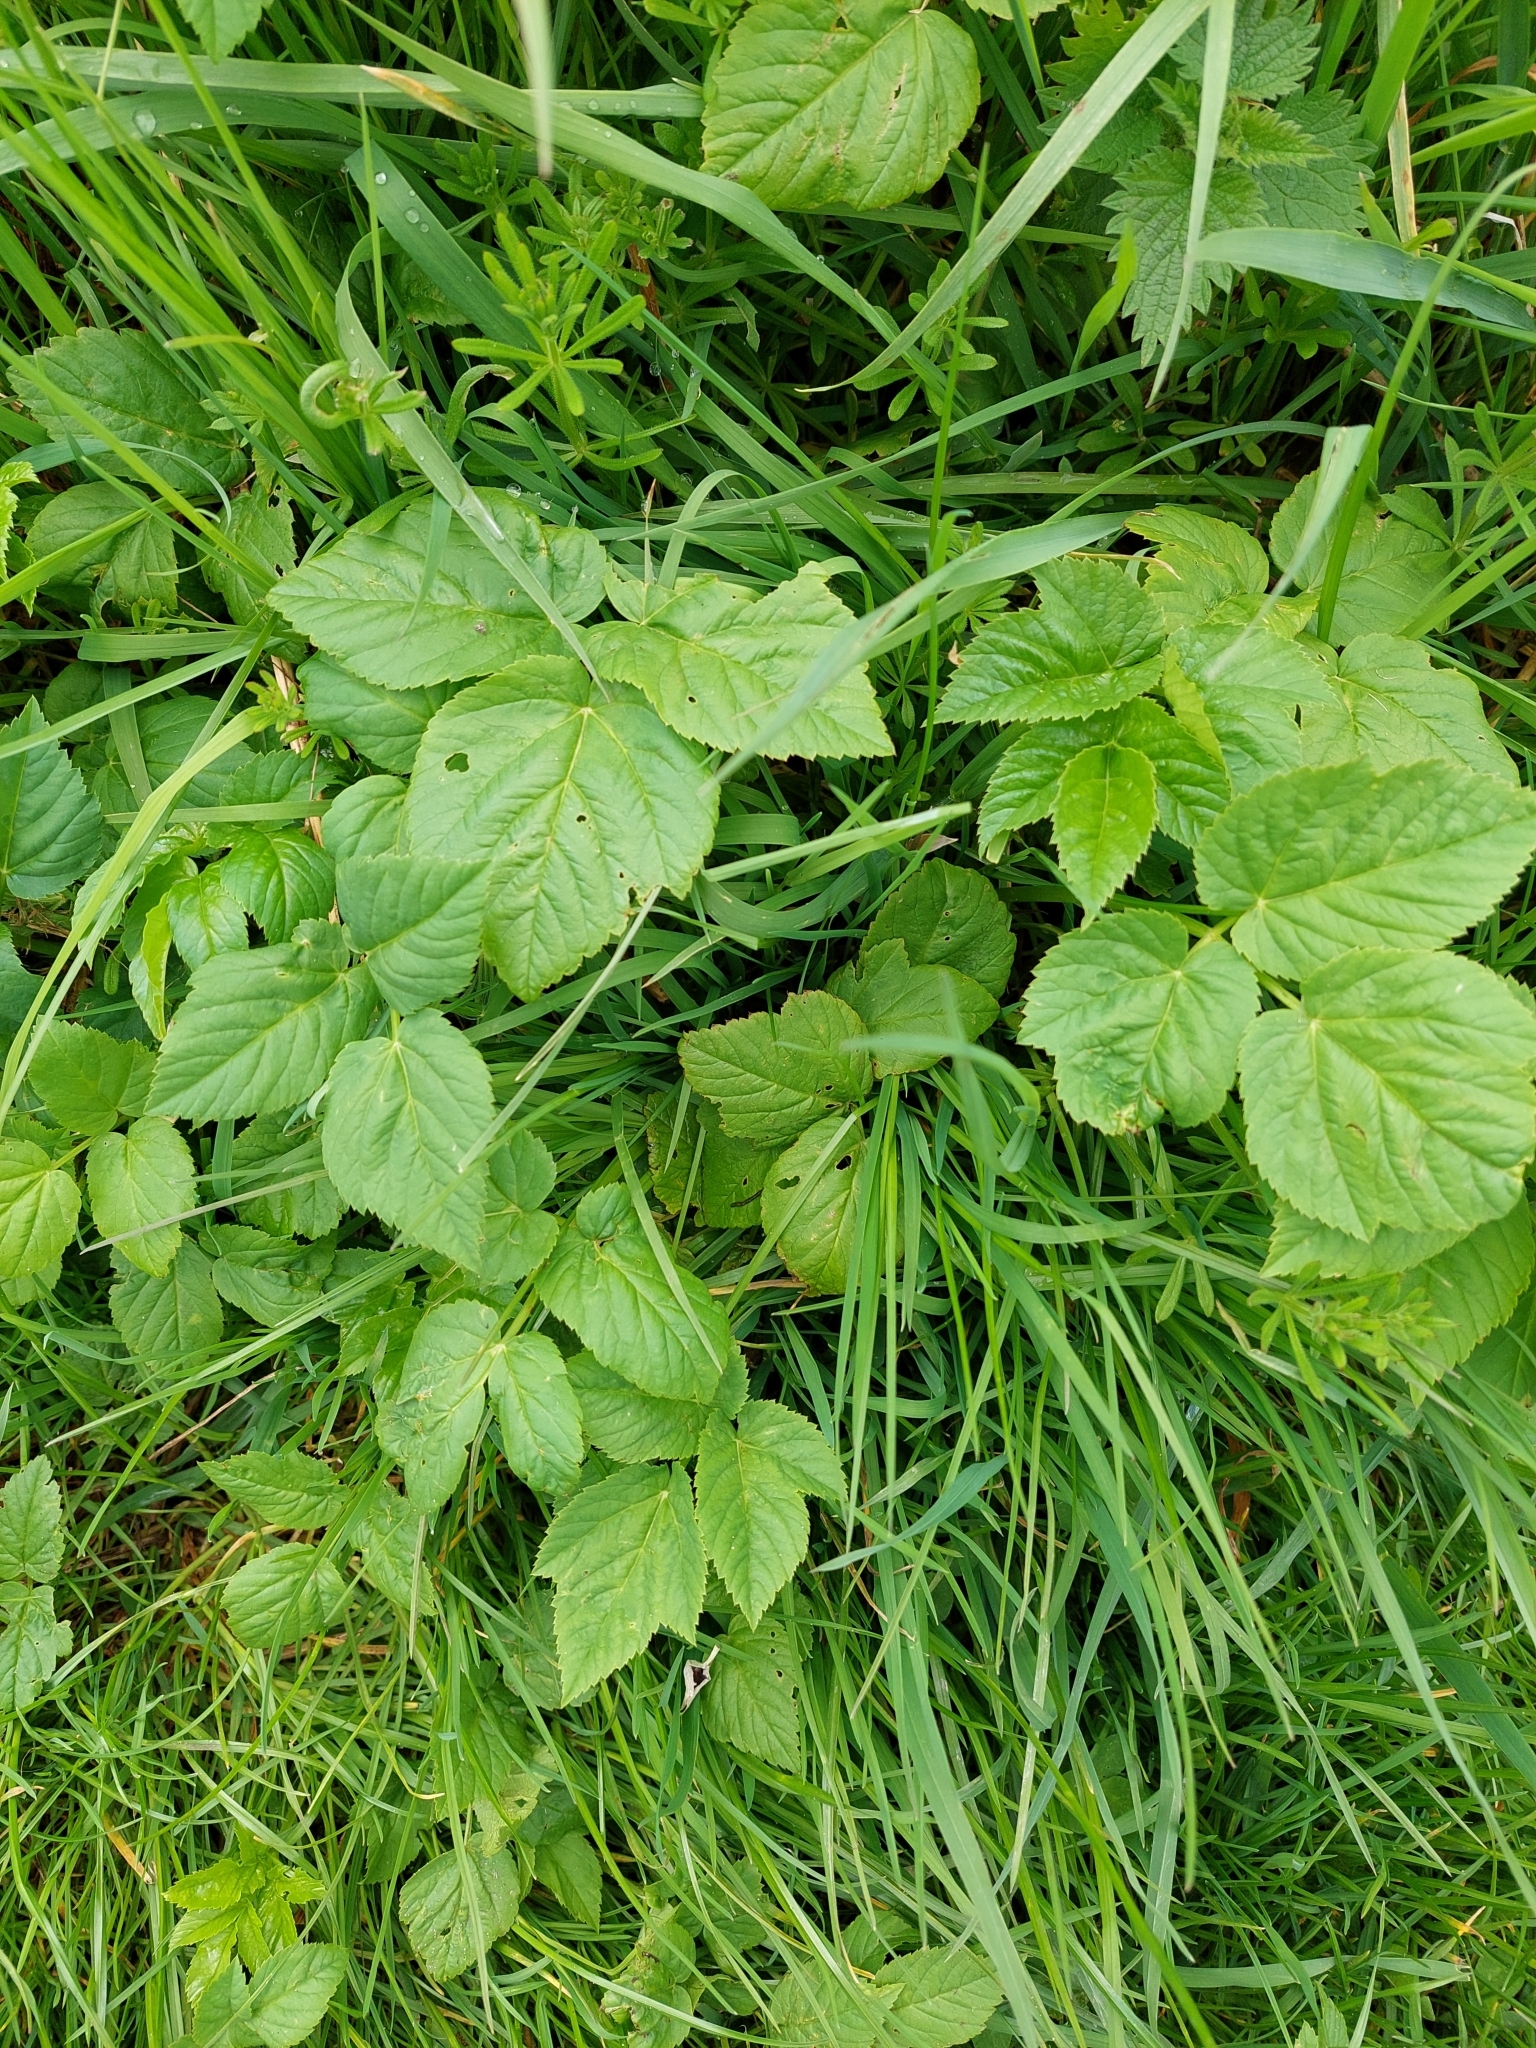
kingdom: Plantae
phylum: Tracheophyta
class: Magnoliopsida
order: Apiales
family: Apiaceae
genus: Aegopodium
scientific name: Aegopodium podagraria
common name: Ground-elder
